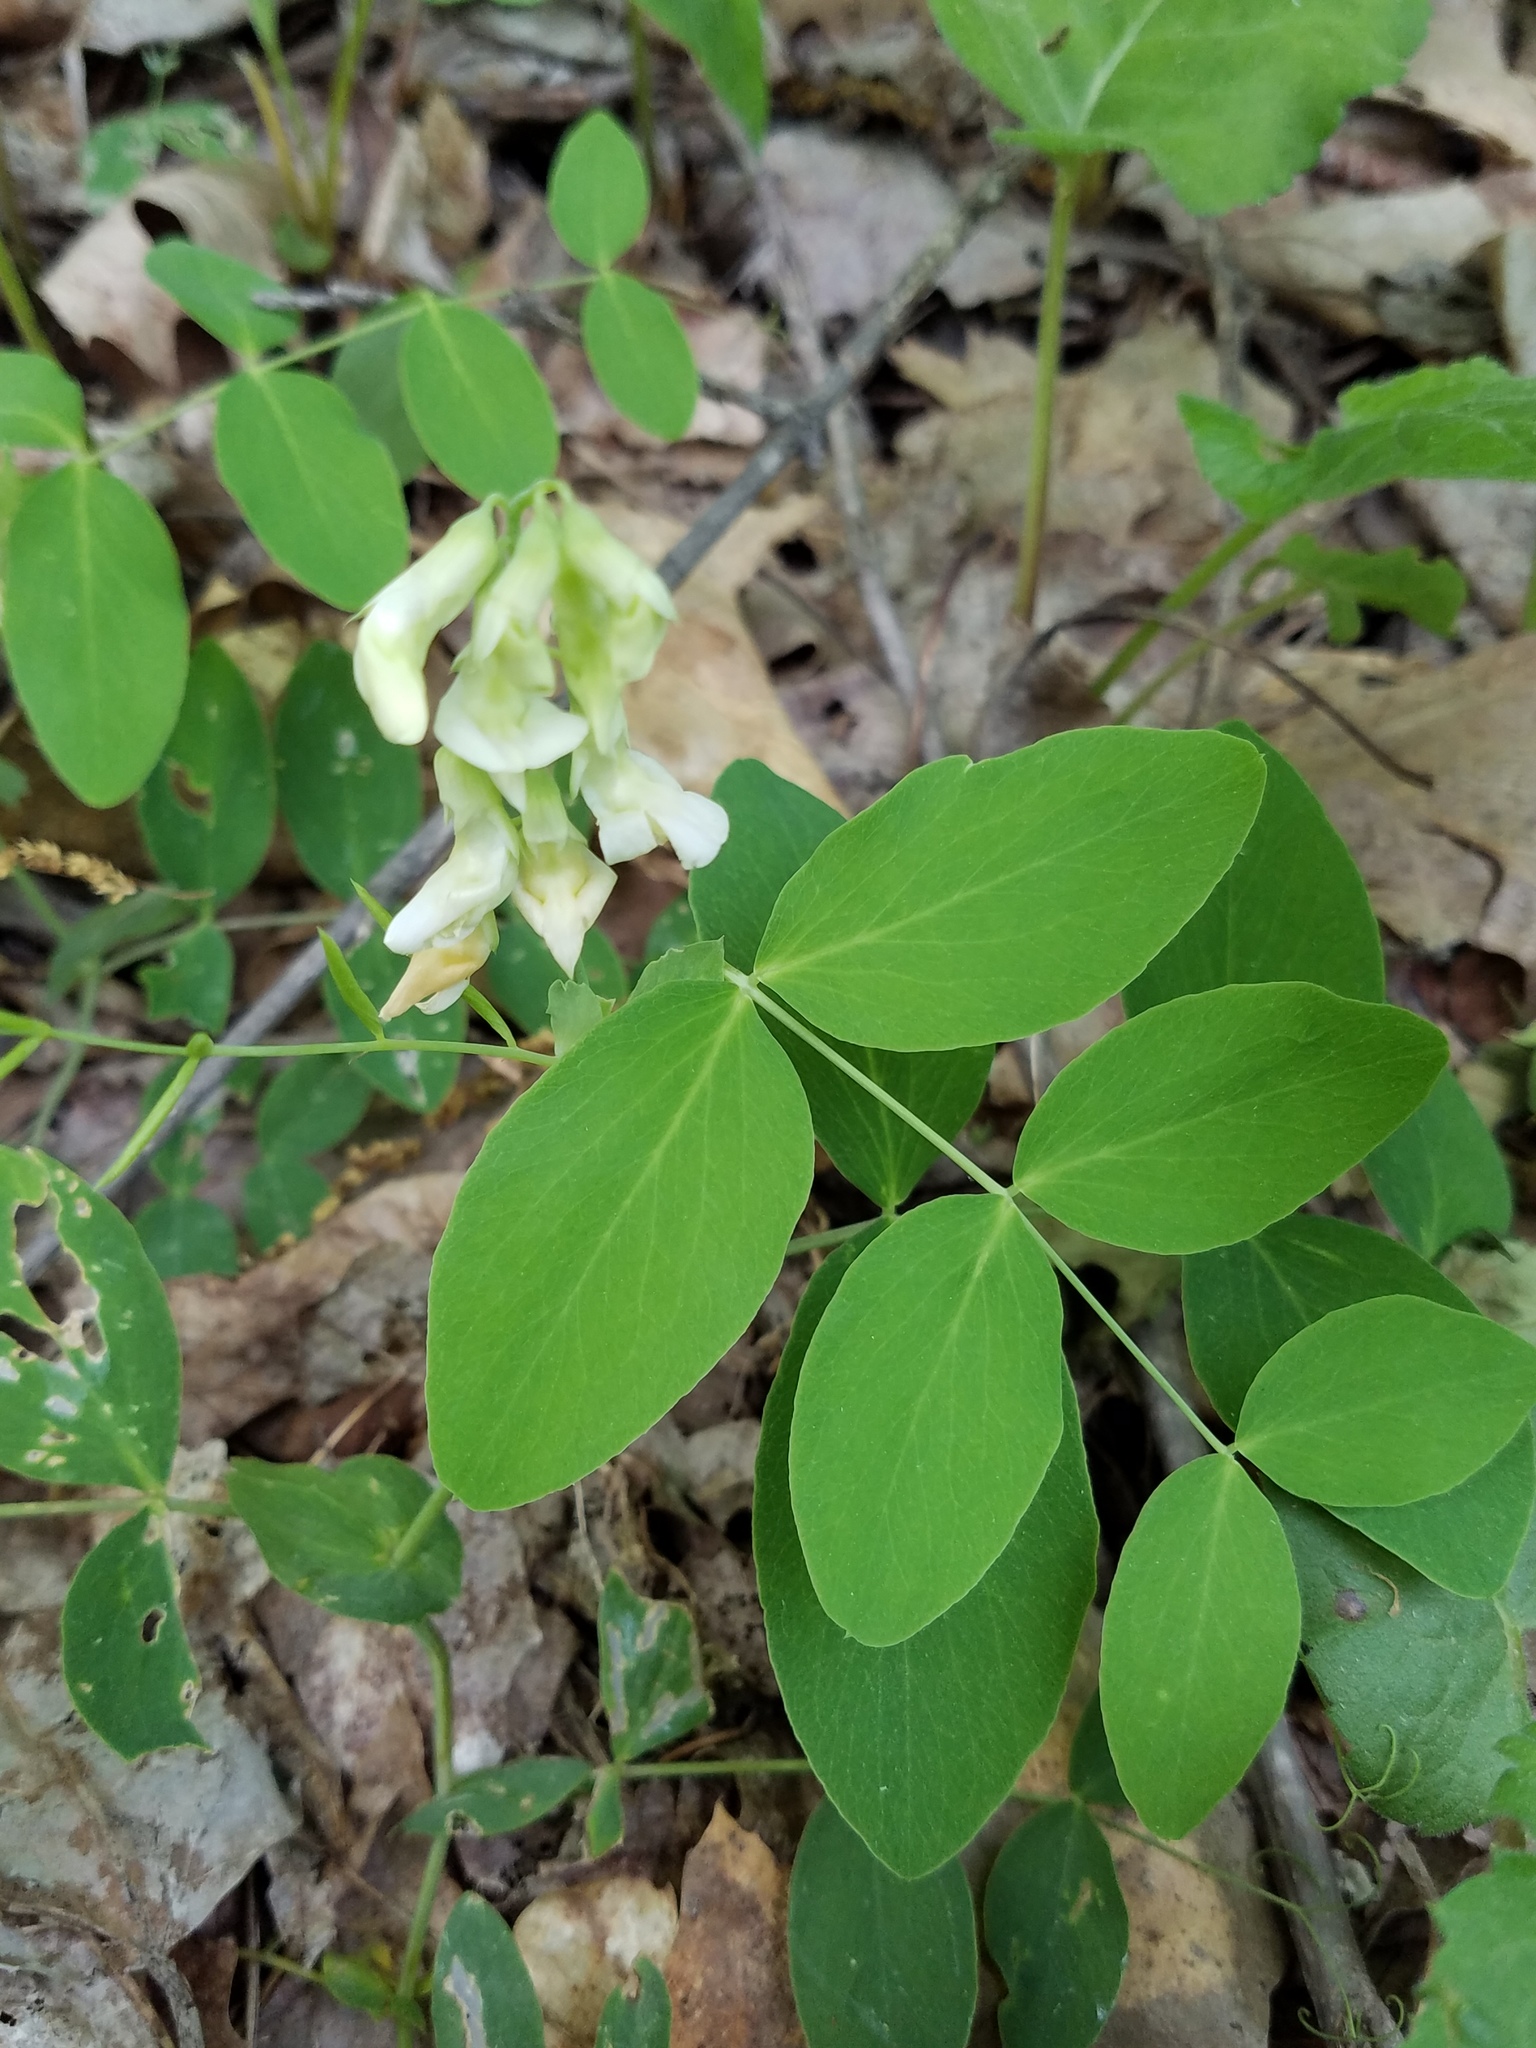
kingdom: Plantae
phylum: Tracheophyta
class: Magnoliopsida
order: Fabales
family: Fabaceae
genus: Lathyrus
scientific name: Lathyrus ochroleucus
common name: Pale vetchling
